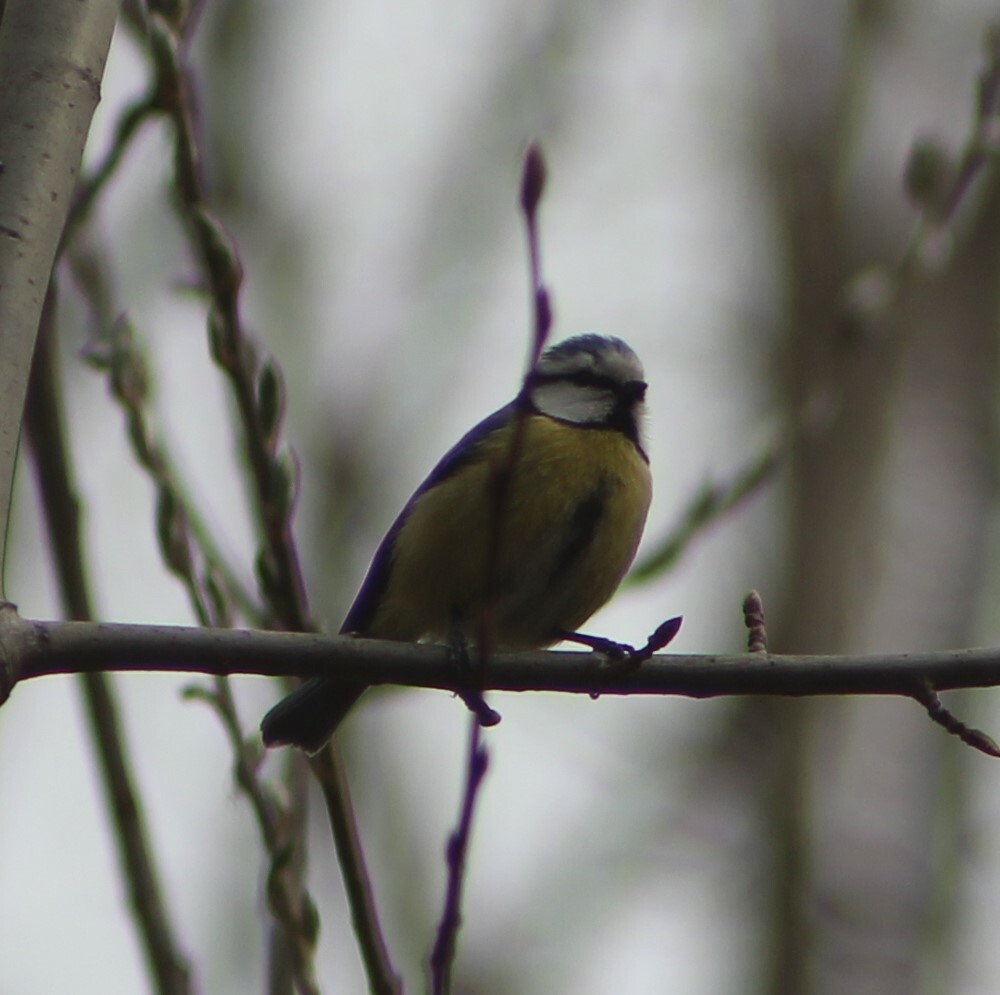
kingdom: Animalia
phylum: Chordata
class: Aves
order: Passeriformes
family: Paridae
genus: Cyanistes
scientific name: Cyanistes caeruleus
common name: Eurasian blue tit
